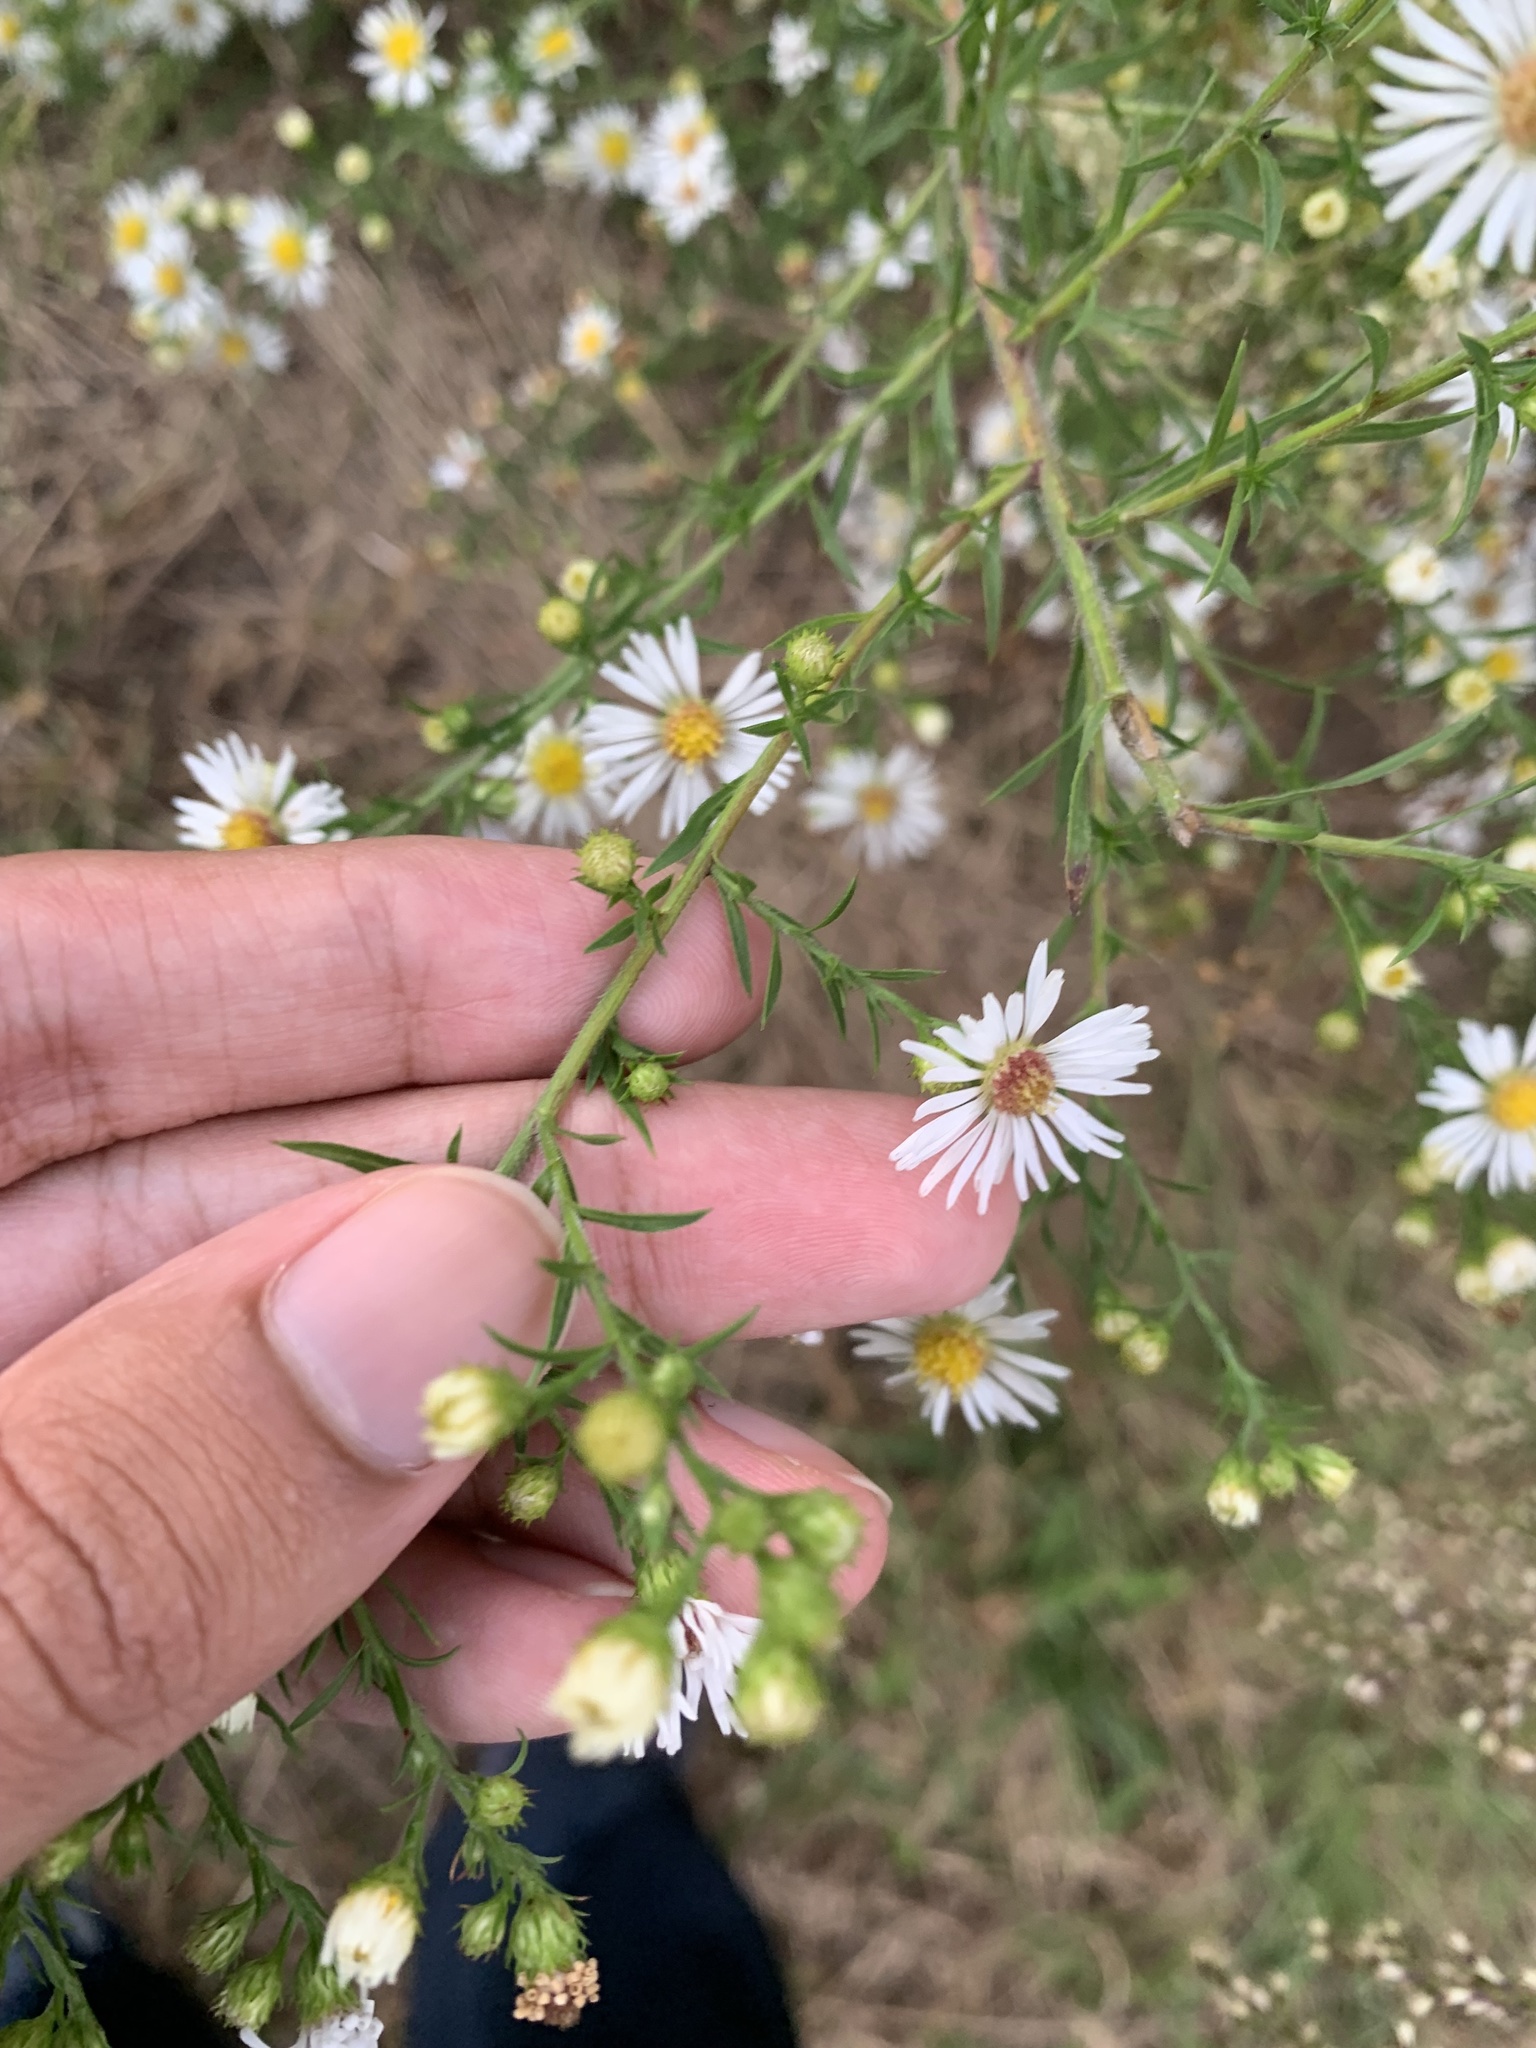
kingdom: Plantae
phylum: Tracheophyta
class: Magnoliopsida
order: Asterales
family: Asteraceae
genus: Symphyotrichum
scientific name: Symphyotrichum pilosum
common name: Awl aster
